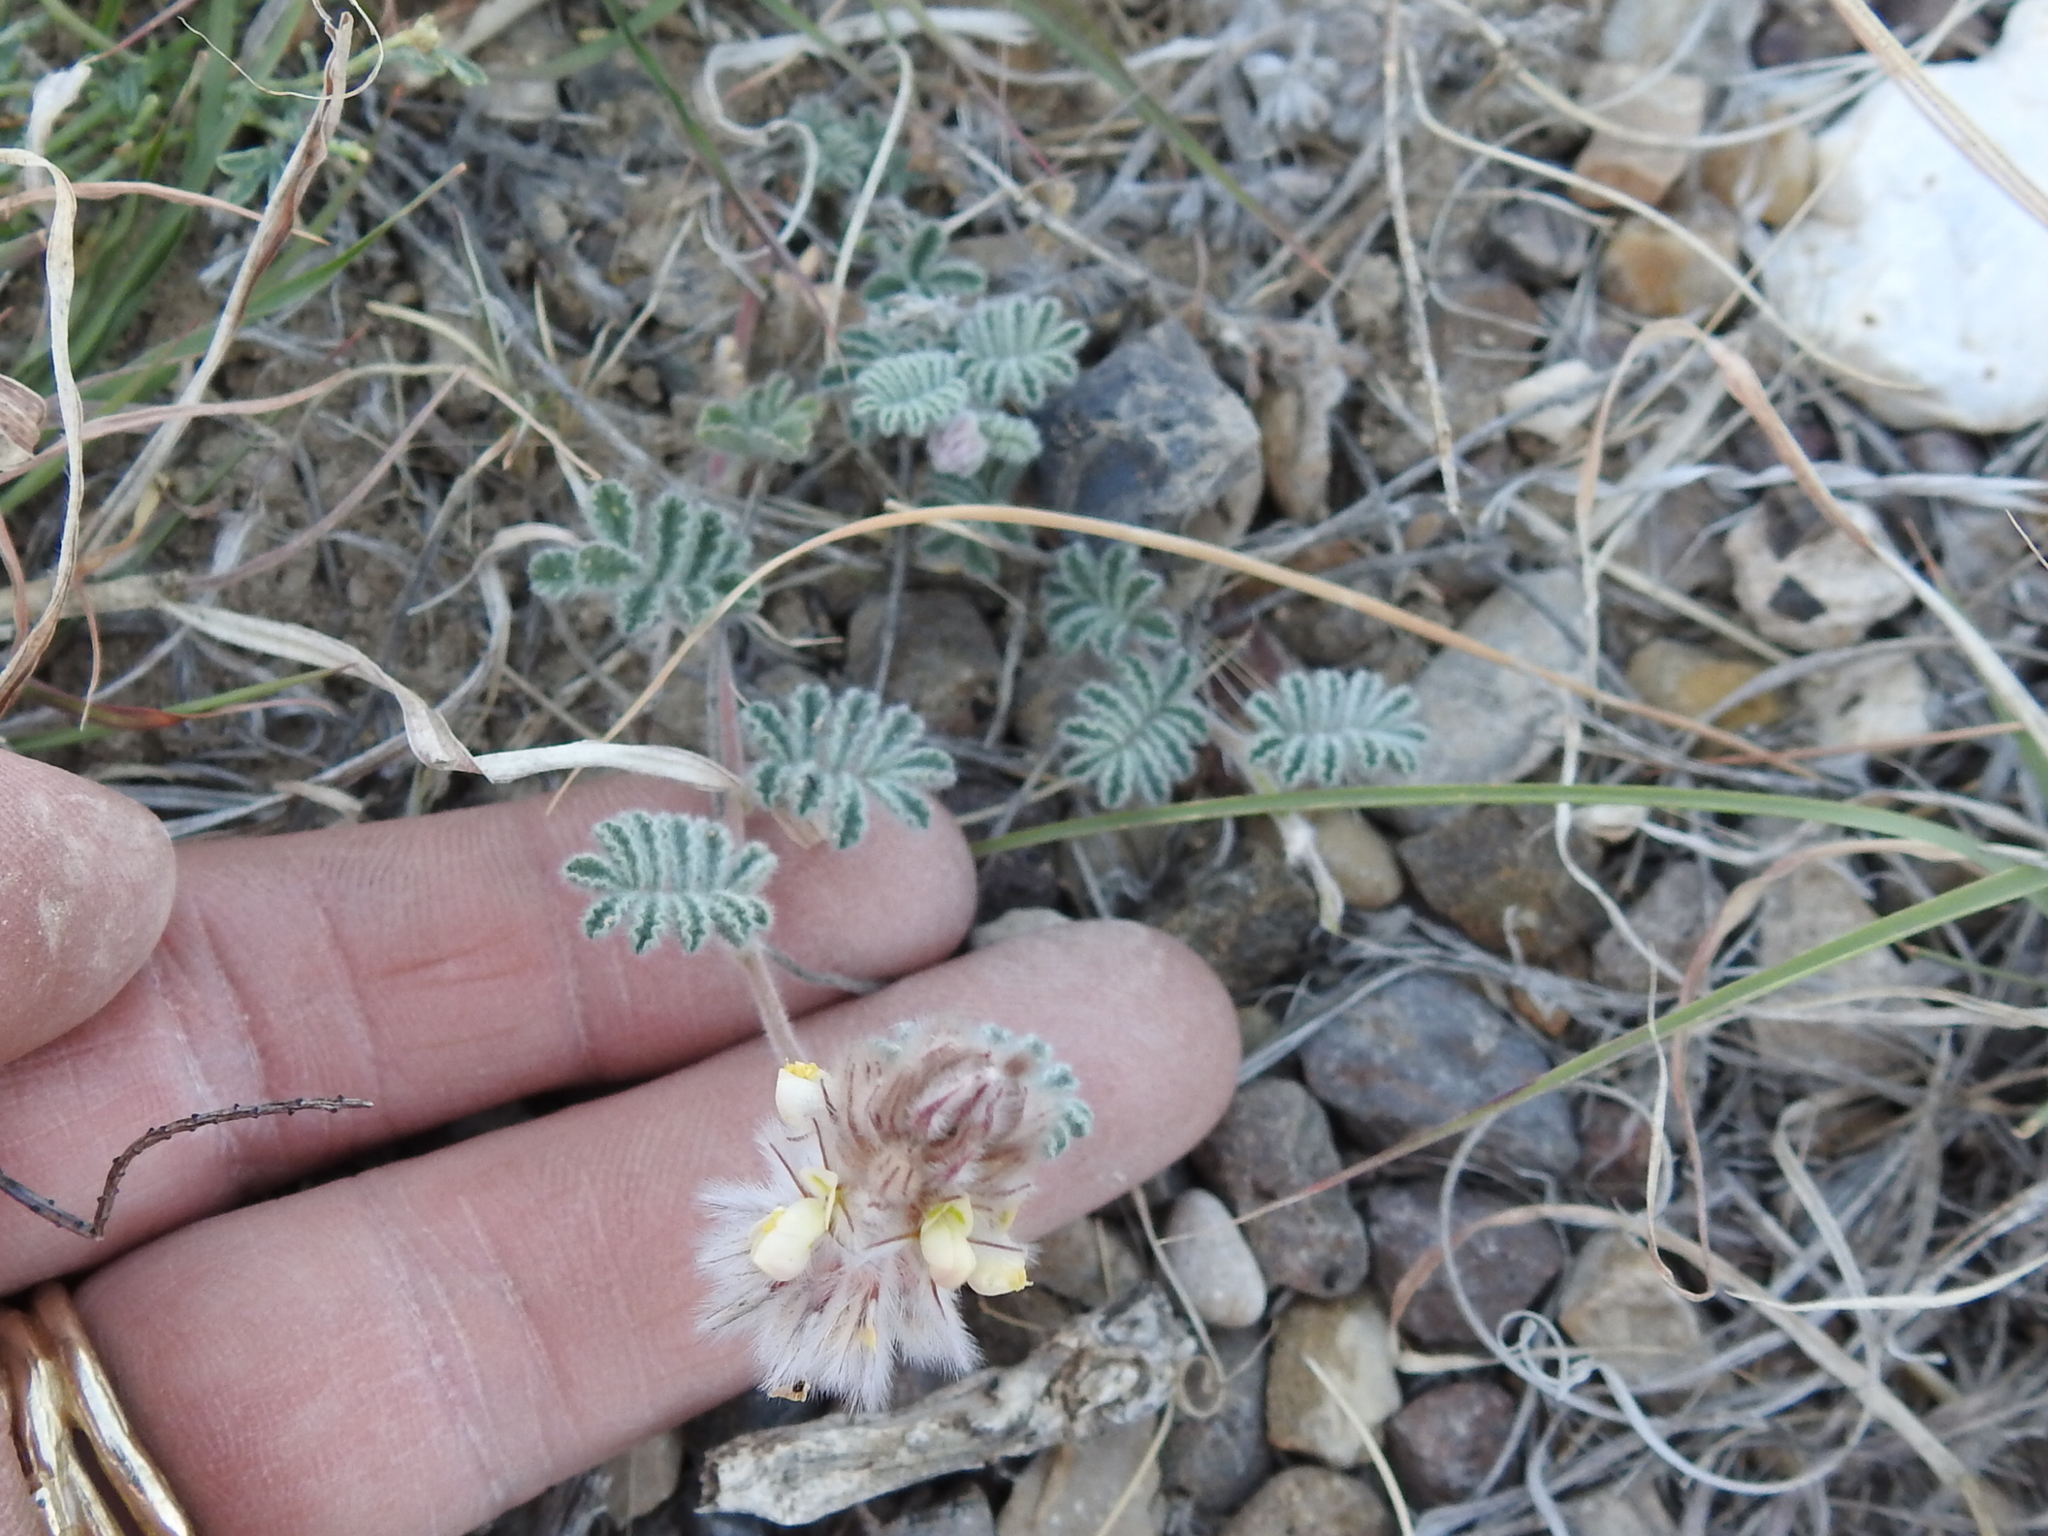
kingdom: Plantae
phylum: Tracheophyta
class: Magnoliopsida
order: Fabales
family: Fabaceae
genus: Dalea
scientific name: Dalea neomexicana
